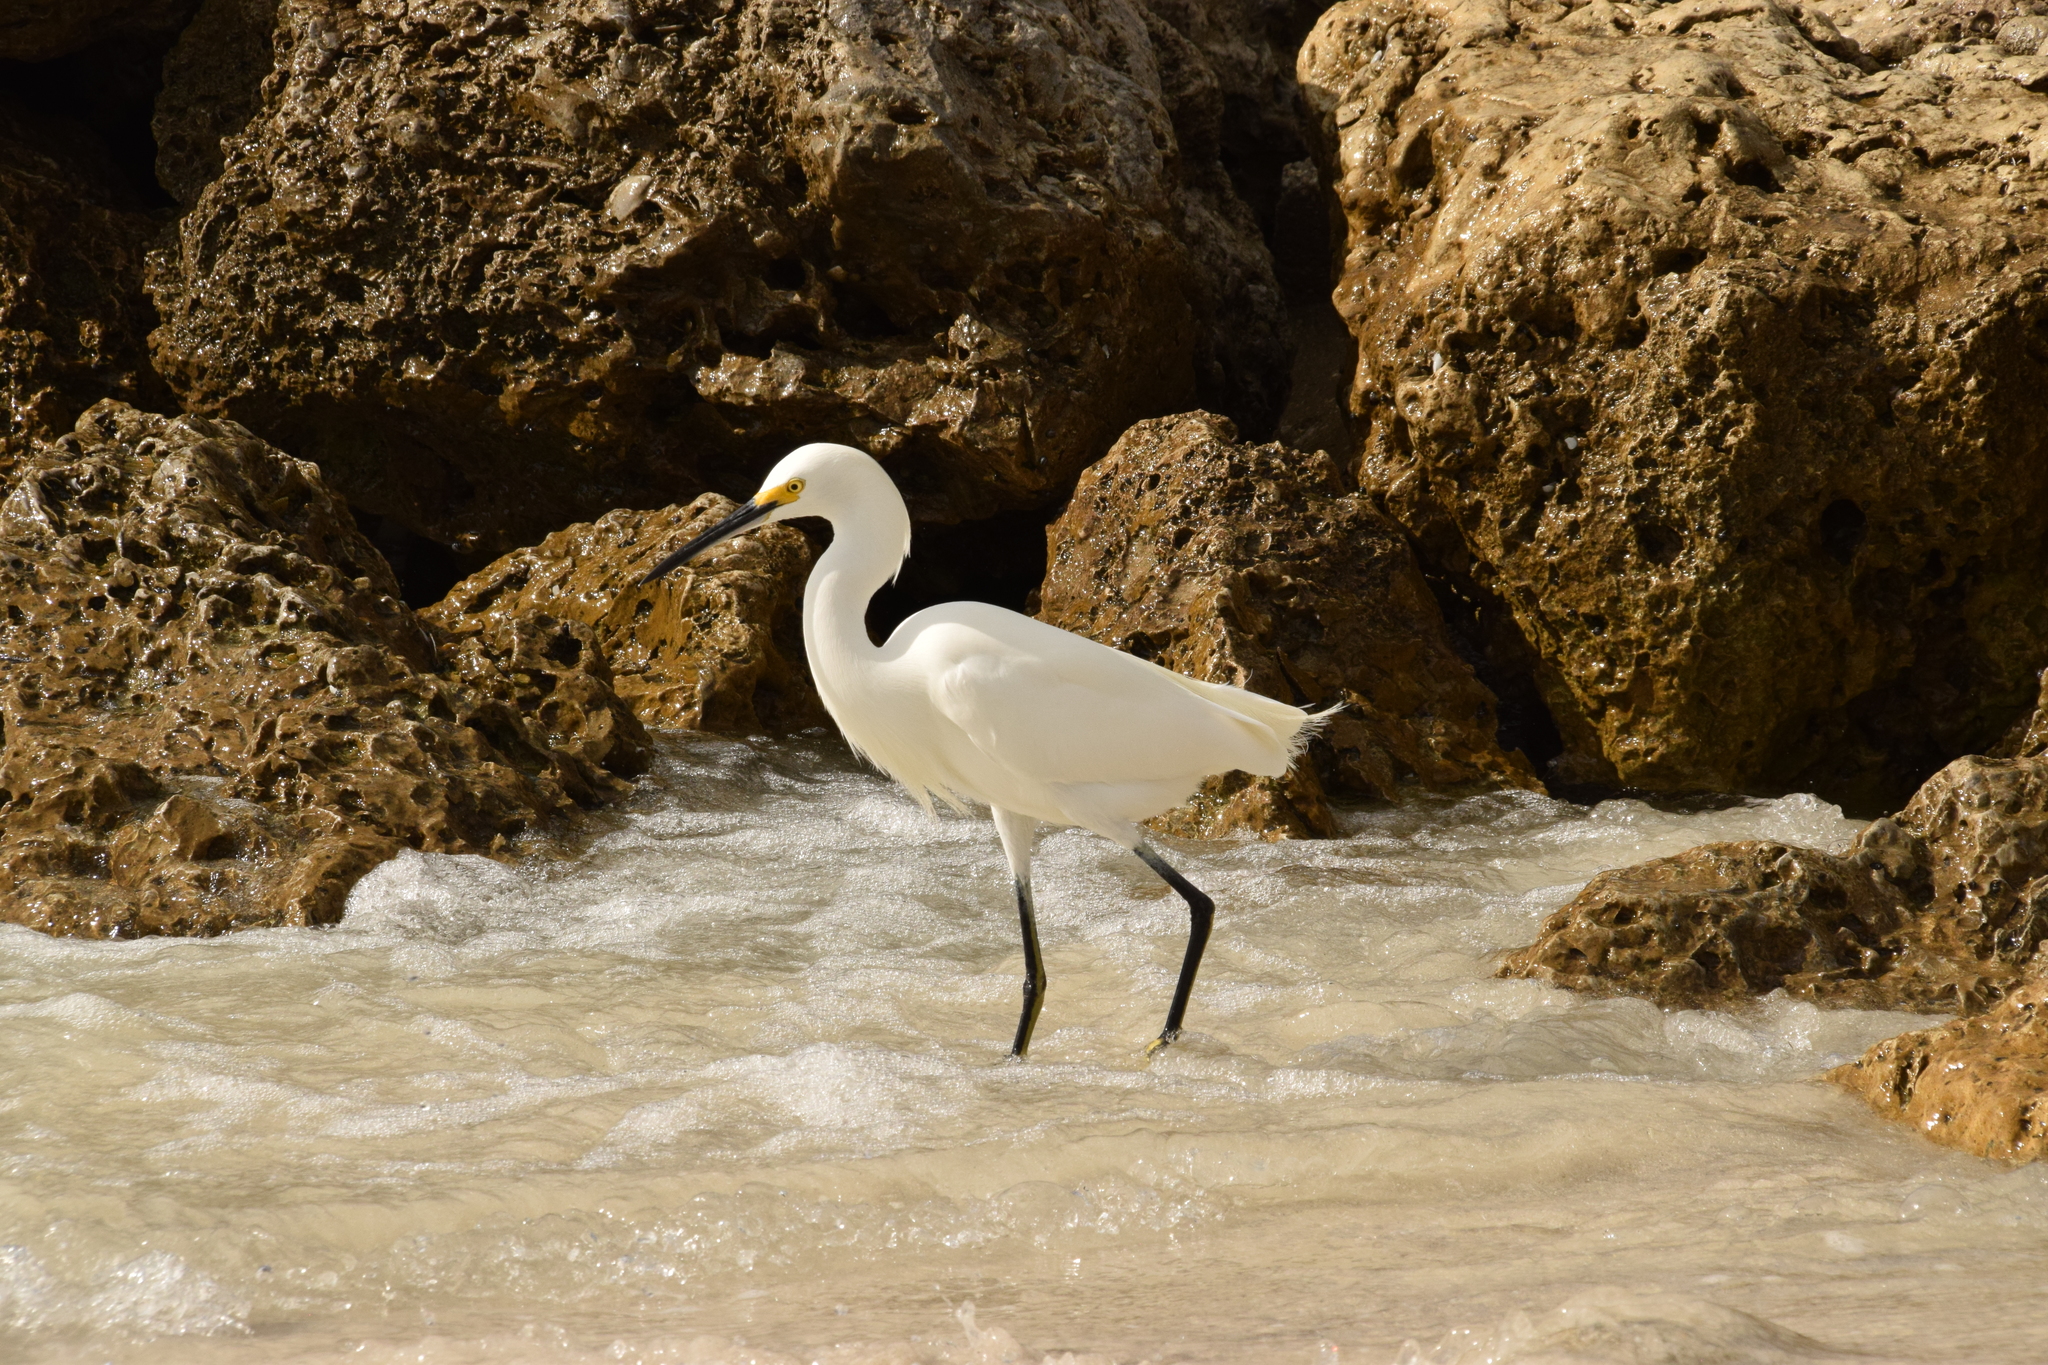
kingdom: Animalia
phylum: Chordata
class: Aves
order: Pelecaniformes
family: Ardeidae
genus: Egretta
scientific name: Egretta thula
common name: Snowy egret
